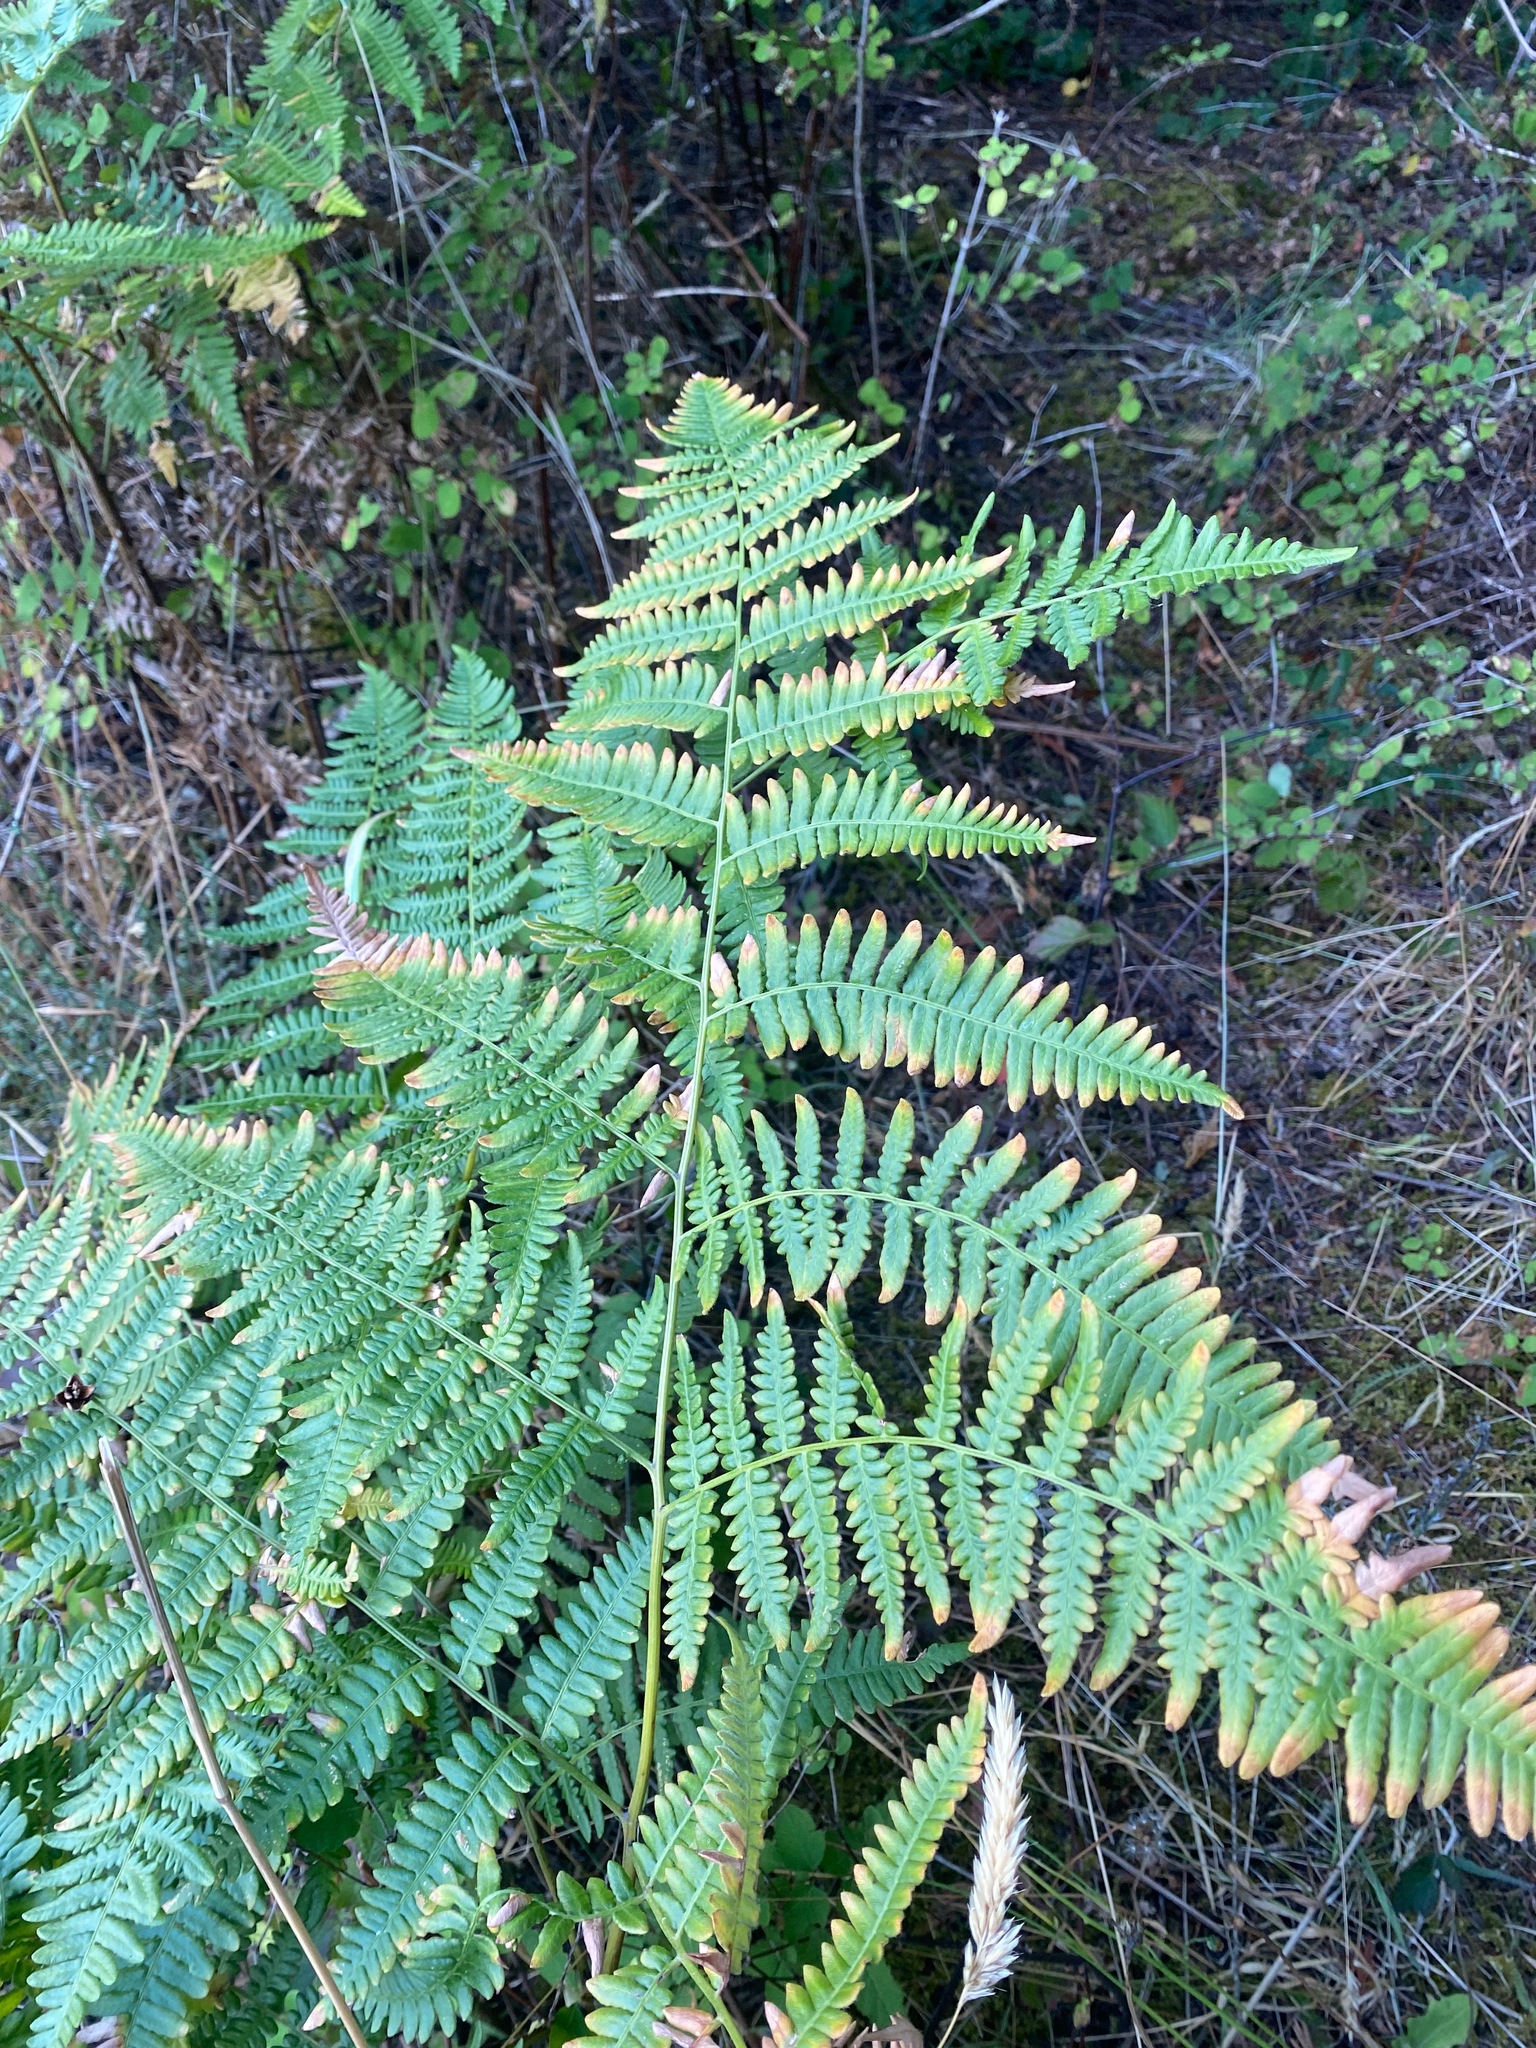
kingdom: Plantae
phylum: Tracheophyta
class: Polypodiopsida
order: Polypodiales
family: Dennstaedtiaceae
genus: Pteridium
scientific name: Pteridium aquilinum
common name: Bracken
